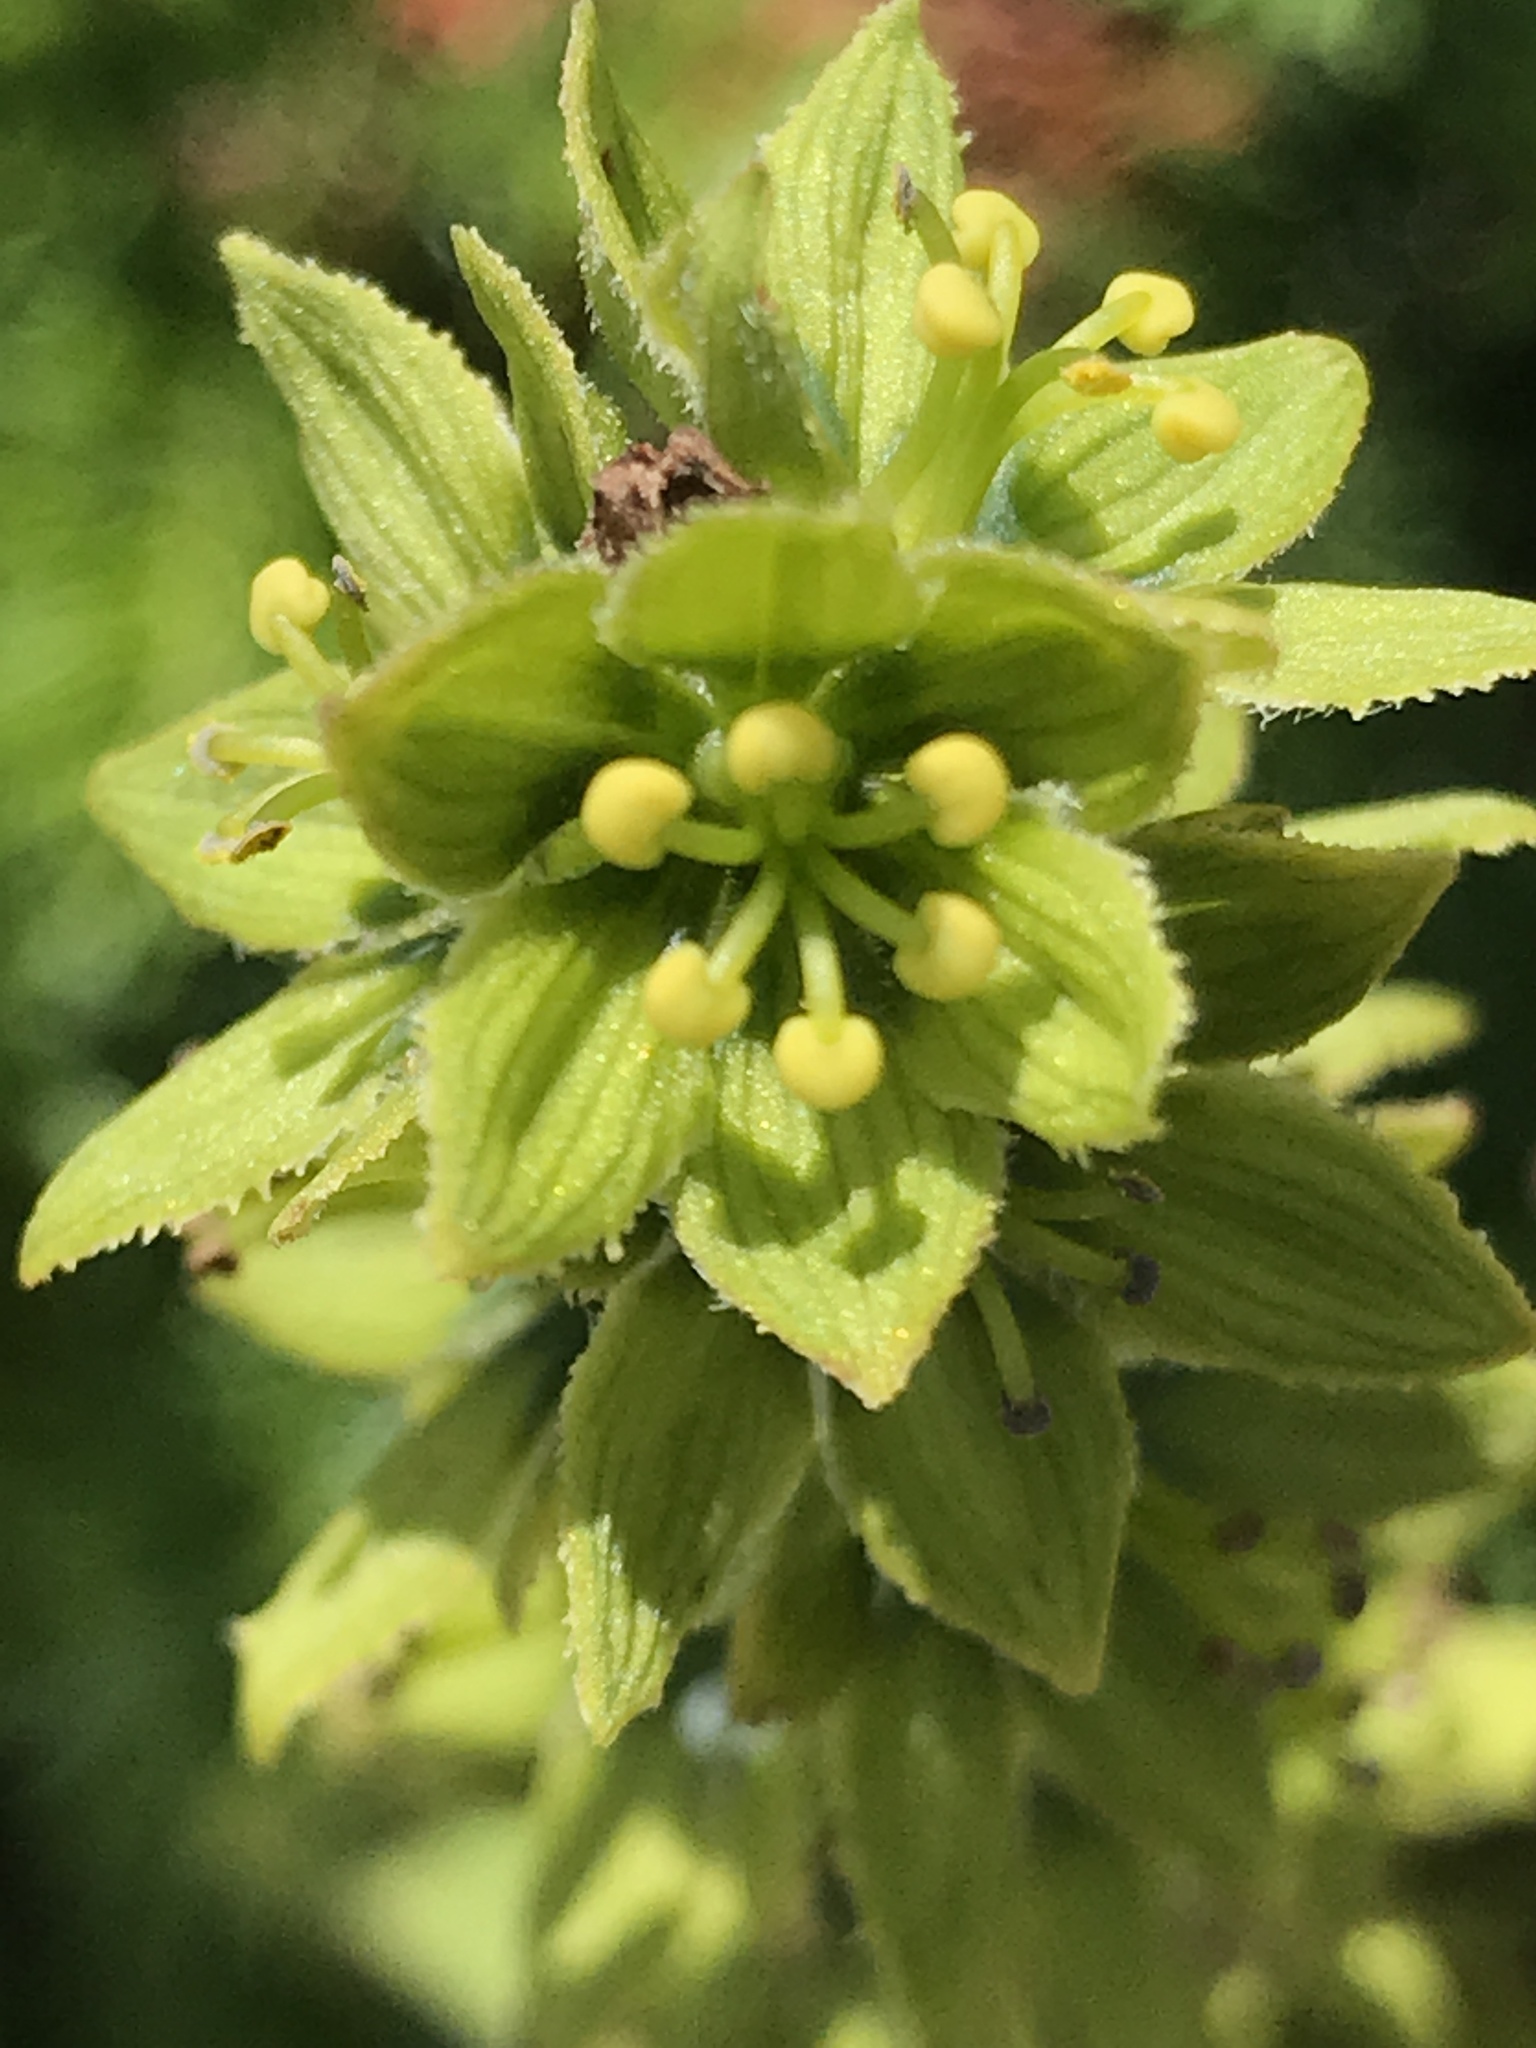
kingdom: Plantae
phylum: Tracheophyta
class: Liliopsida
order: Liliales
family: Melanthiaceae
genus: Veratrum
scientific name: Veratrum viride
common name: American false hellebore
